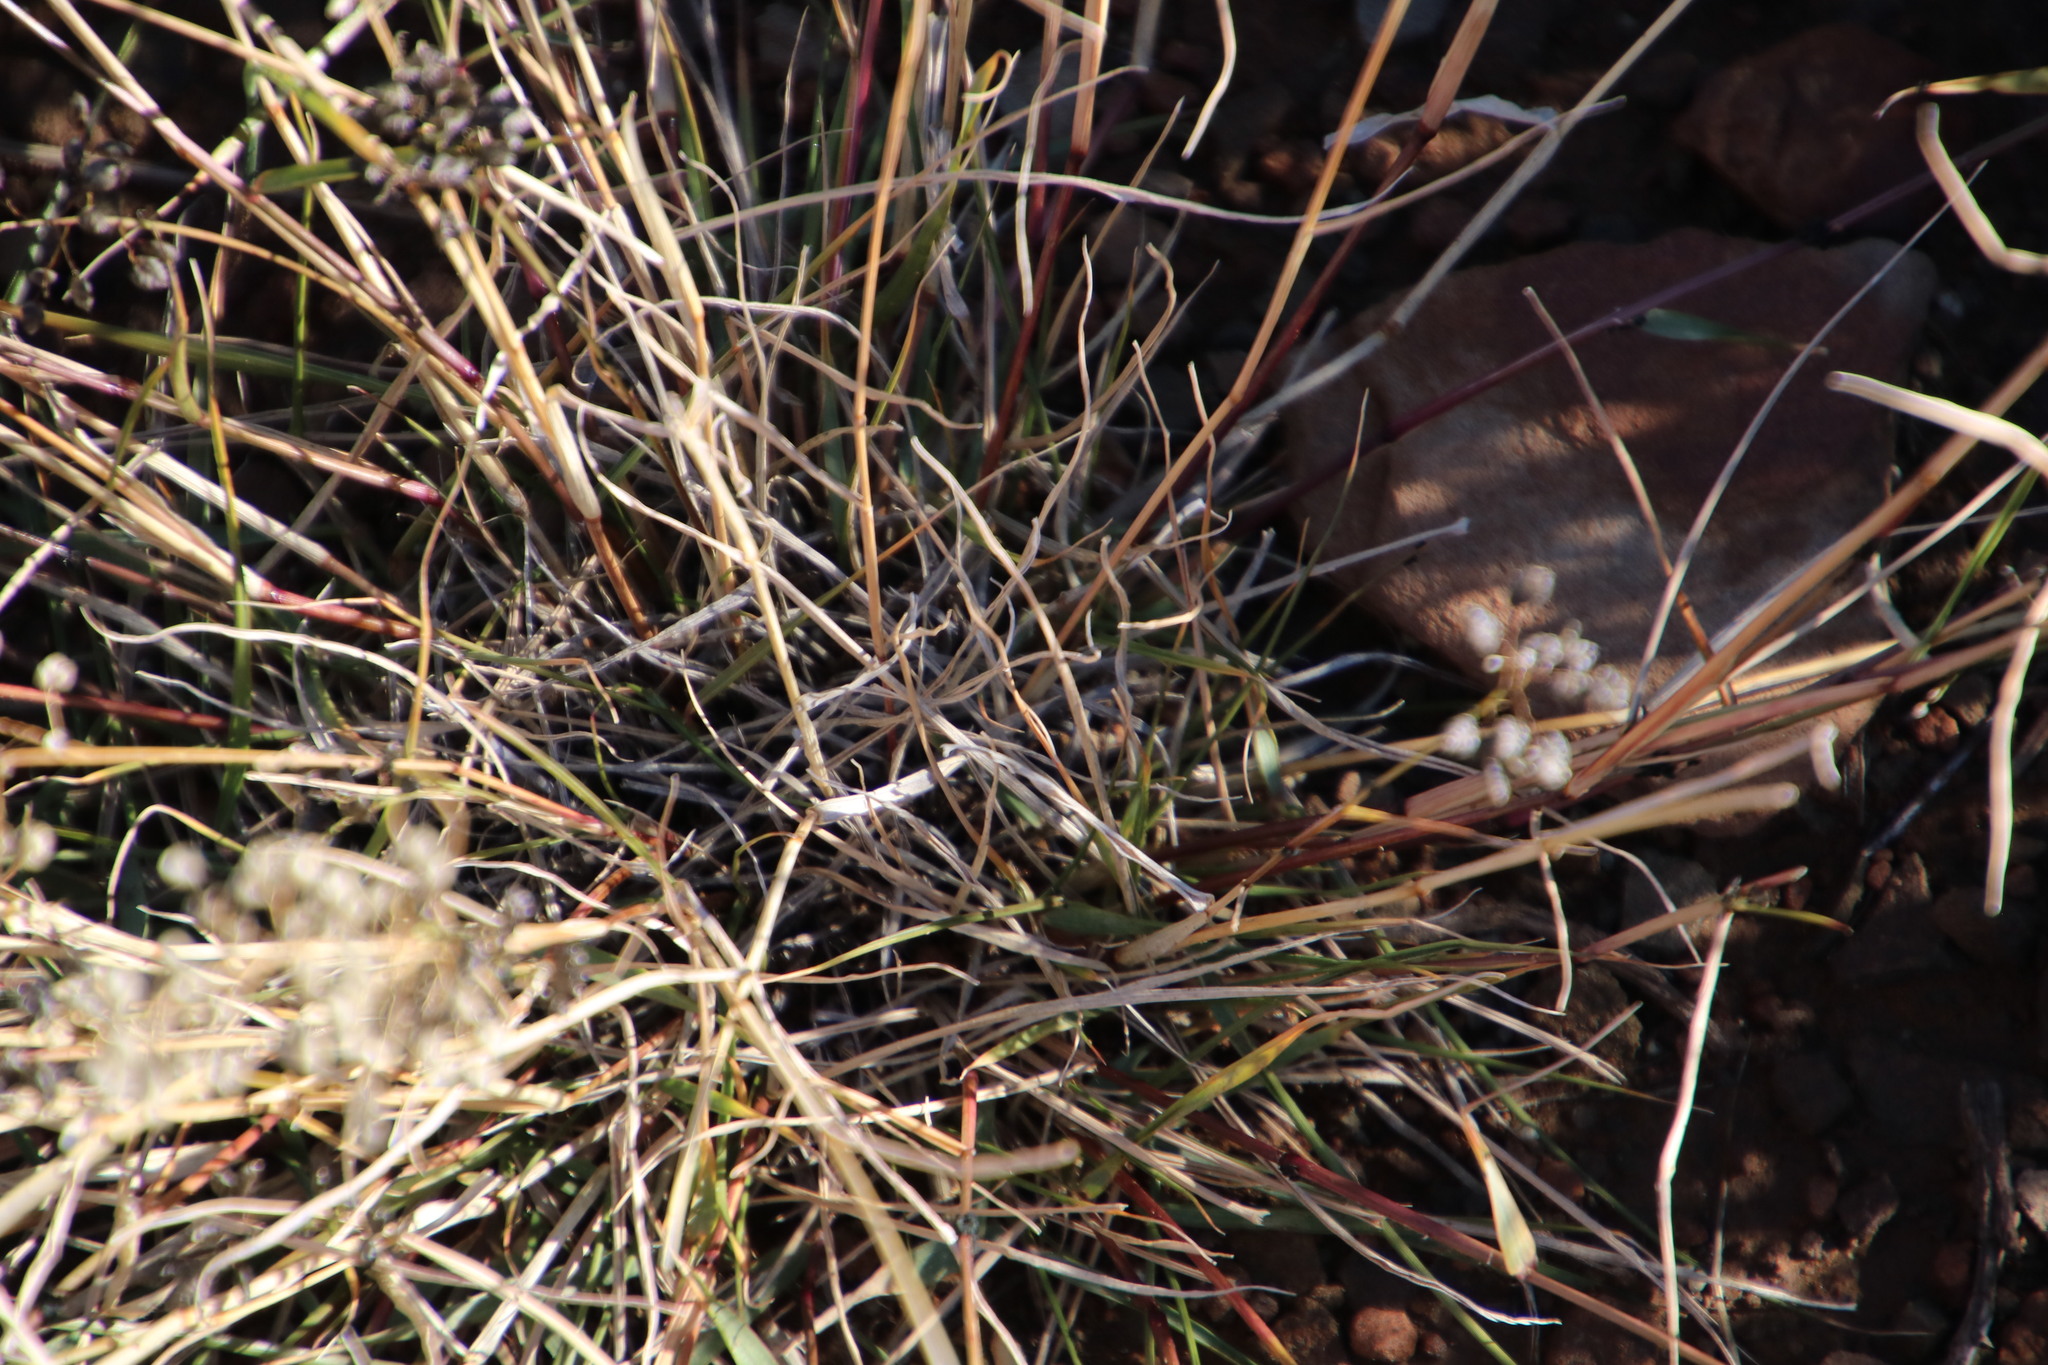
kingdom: Plantae
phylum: Tracheophyta
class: Liliopsida
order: Poales
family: Poaceae
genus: Eragrostis
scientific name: Eragrostis obtusa
